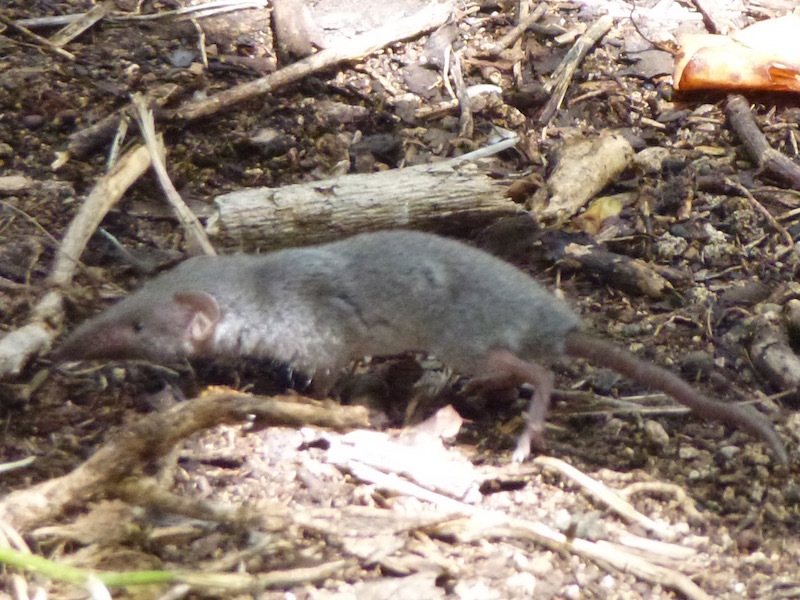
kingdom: Animalia
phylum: Chordata
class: Mammalia
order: Soricomorpha
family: Soricidae
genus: Suncus
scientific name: Suncus murinus
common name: Asian house shrew
